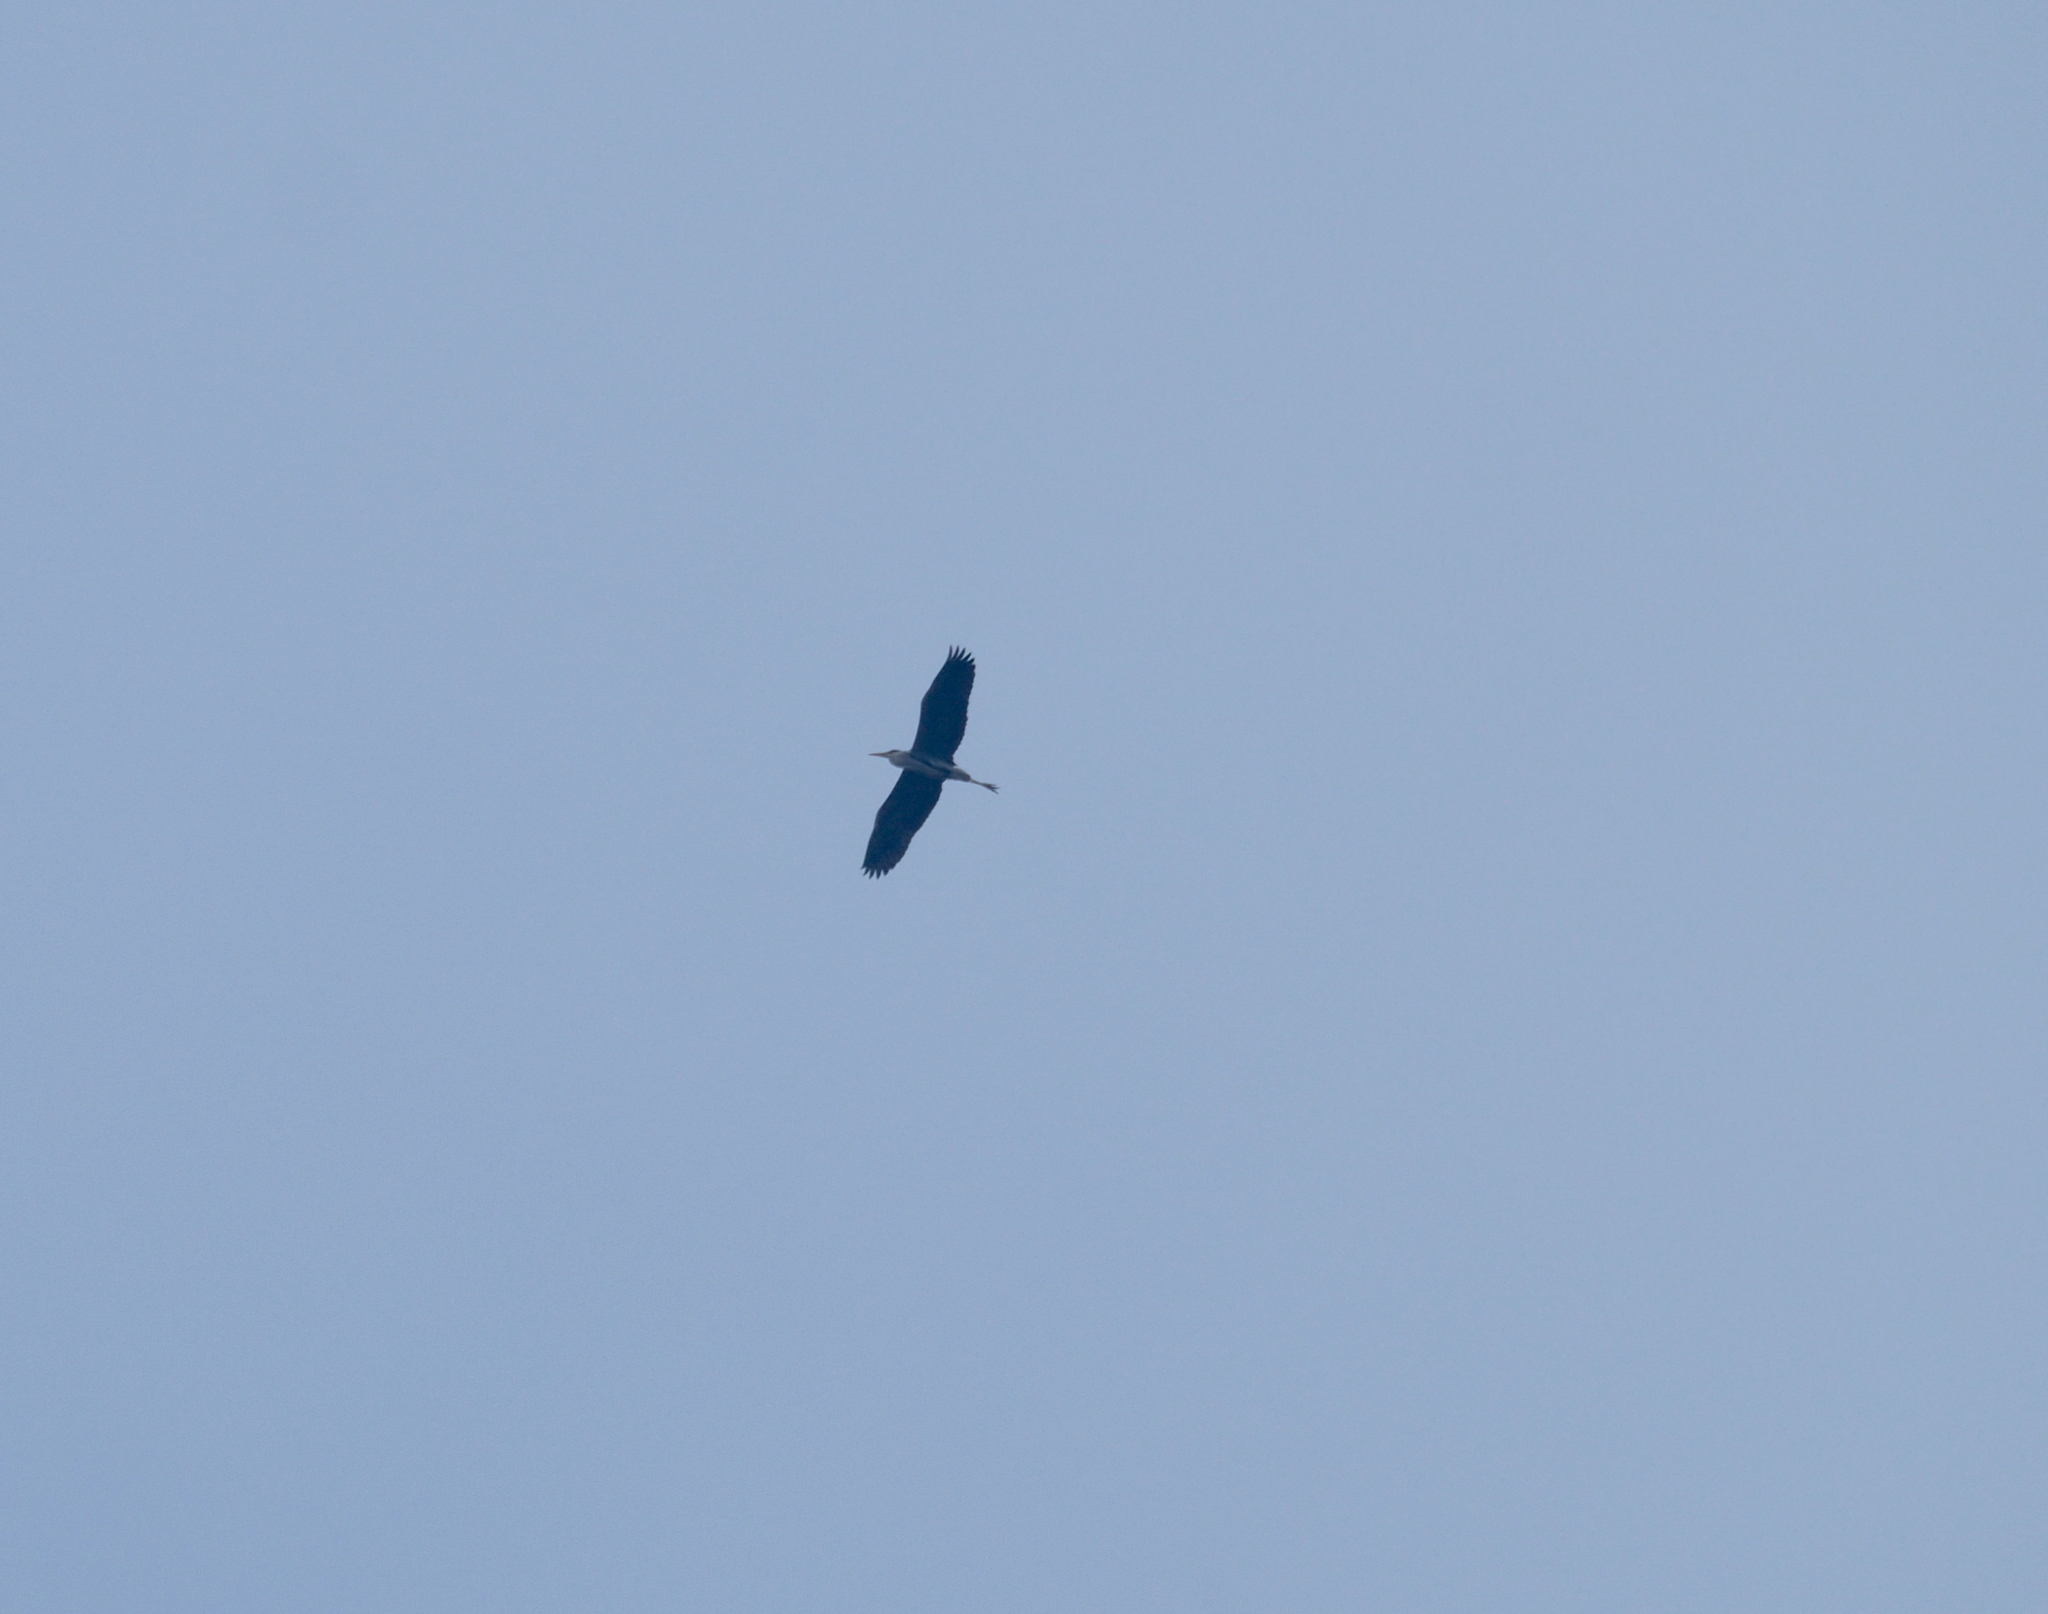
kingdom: Animalia
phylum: Chordata
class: Aves
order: Pelecaniformes
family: Ardeidae
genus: Ardea
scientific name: Ardea cinerea
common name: Grey heron
